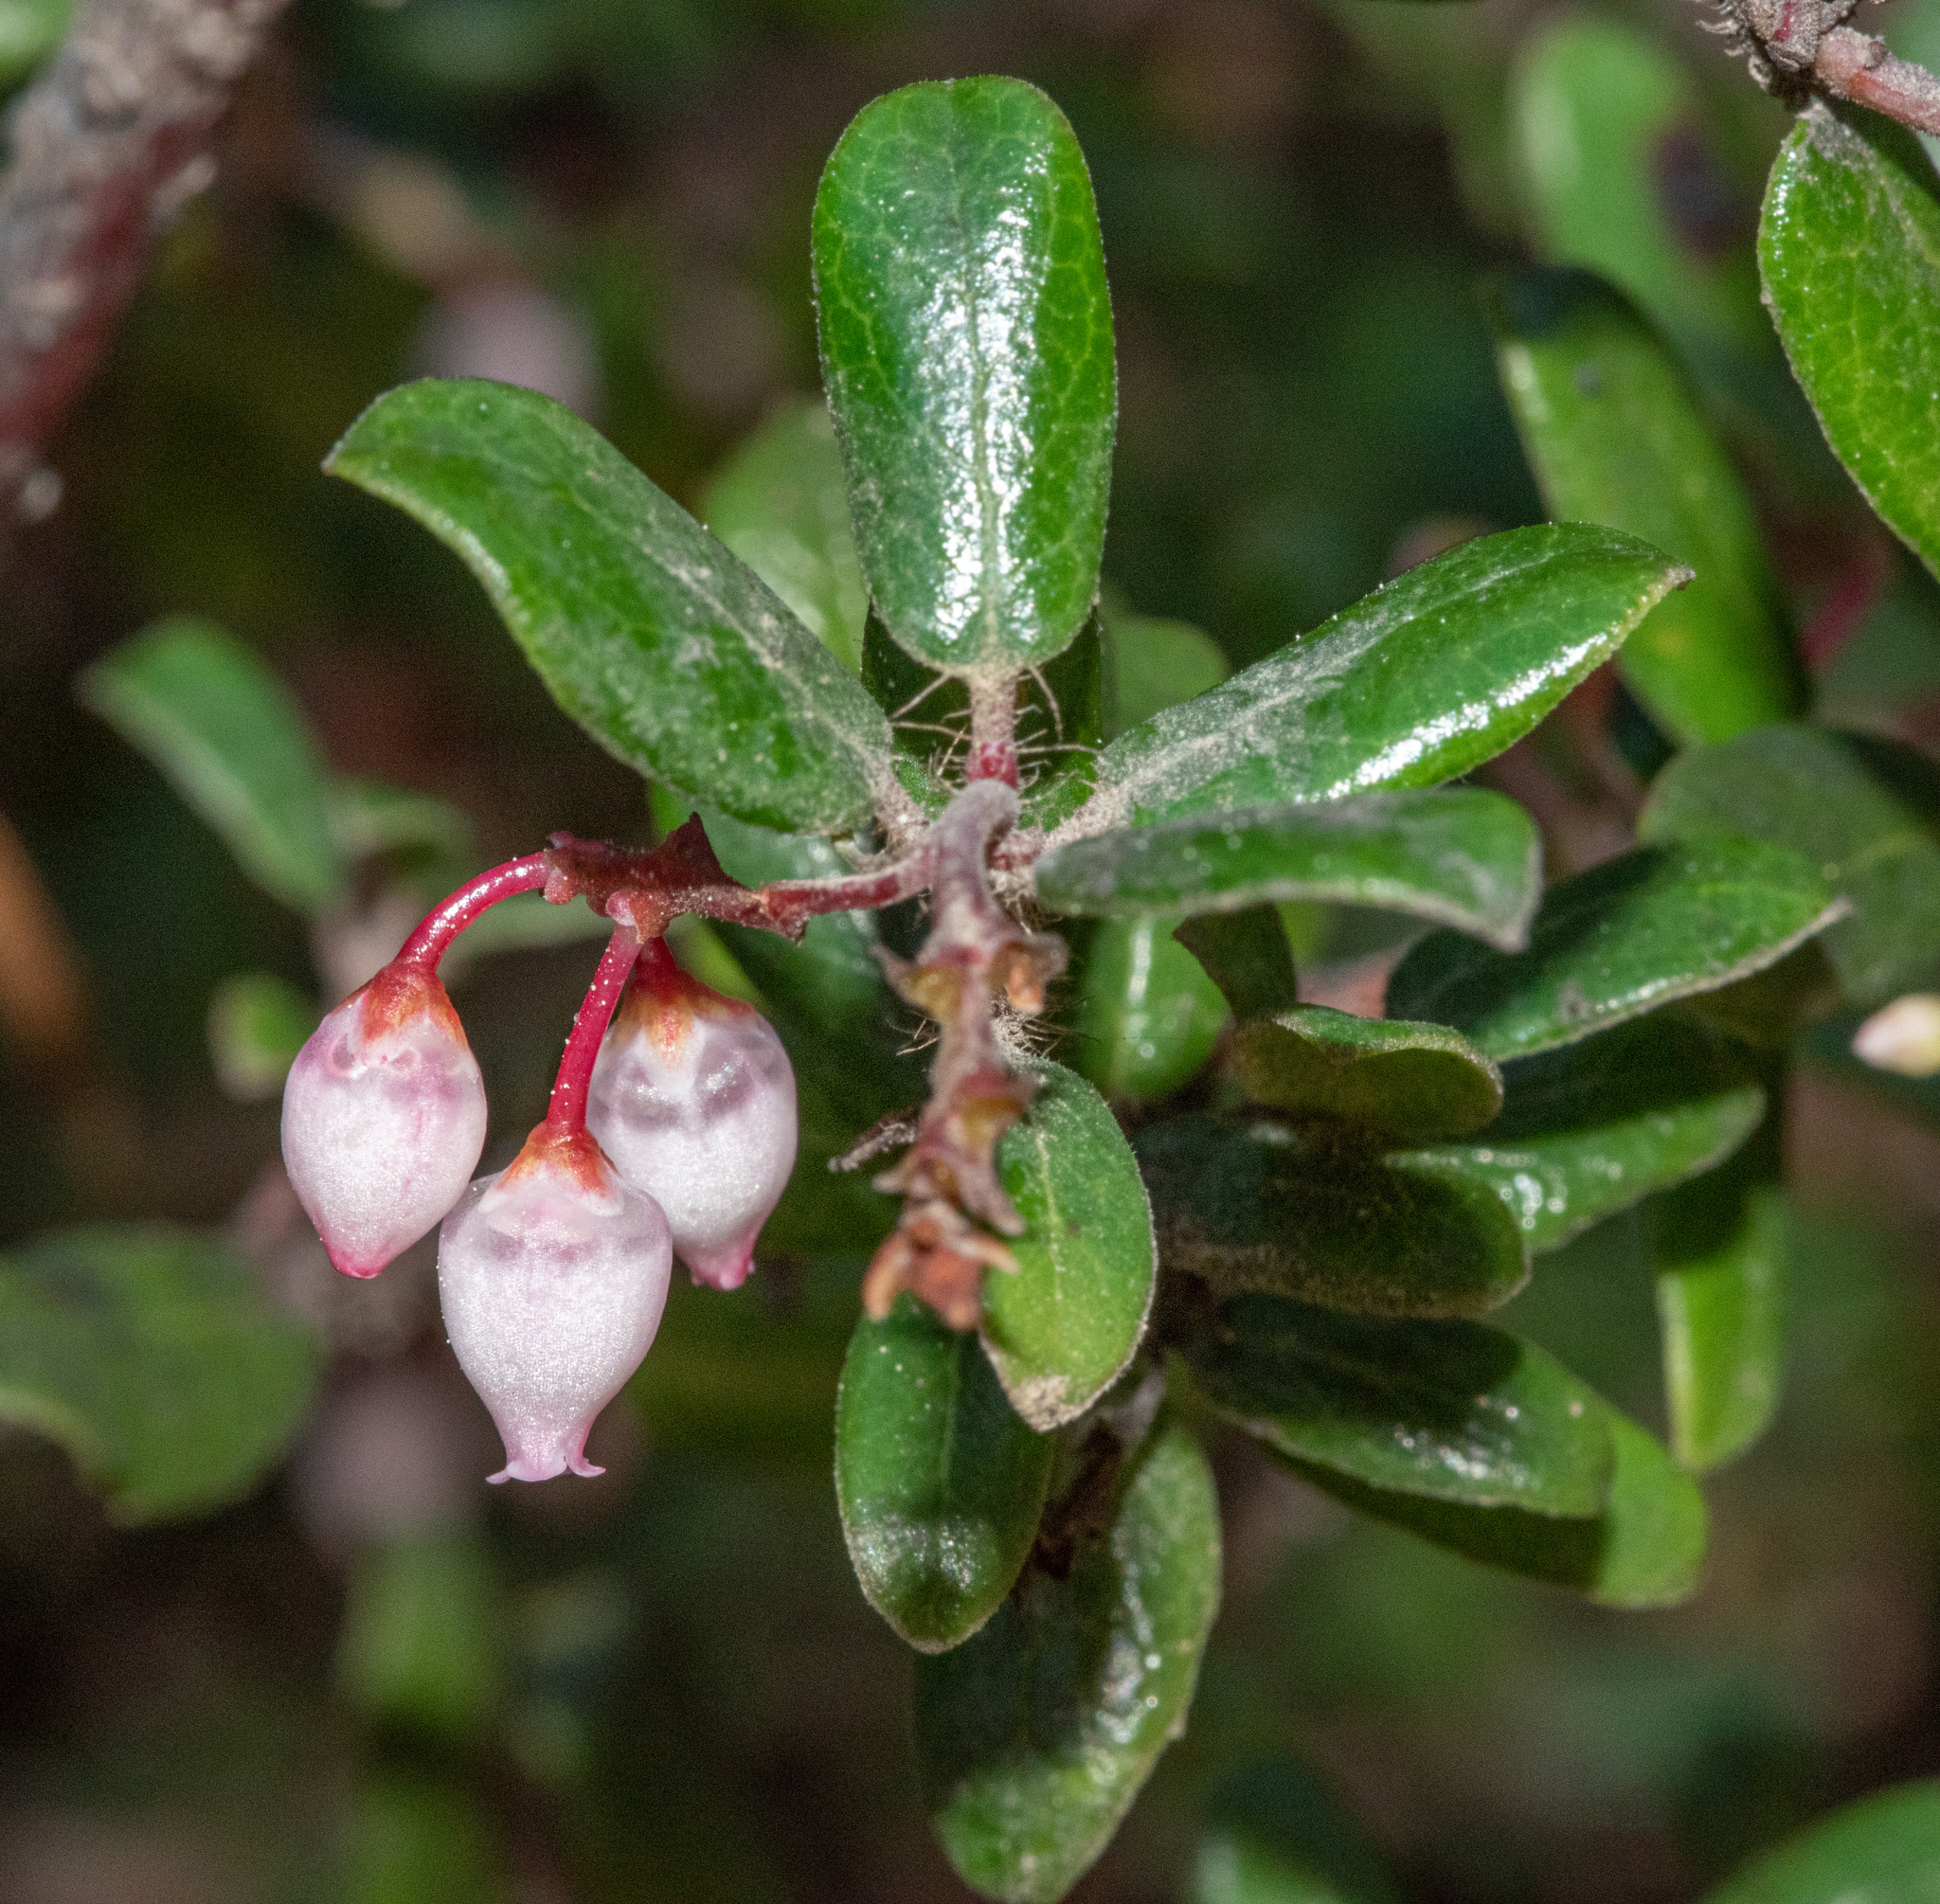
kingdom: Plantae
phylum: Tracheophyta
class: Magnoliopsida
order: Ericales
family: Ericaceae
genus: Arctostaphylos
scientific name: Arctostaphylos nummularia
